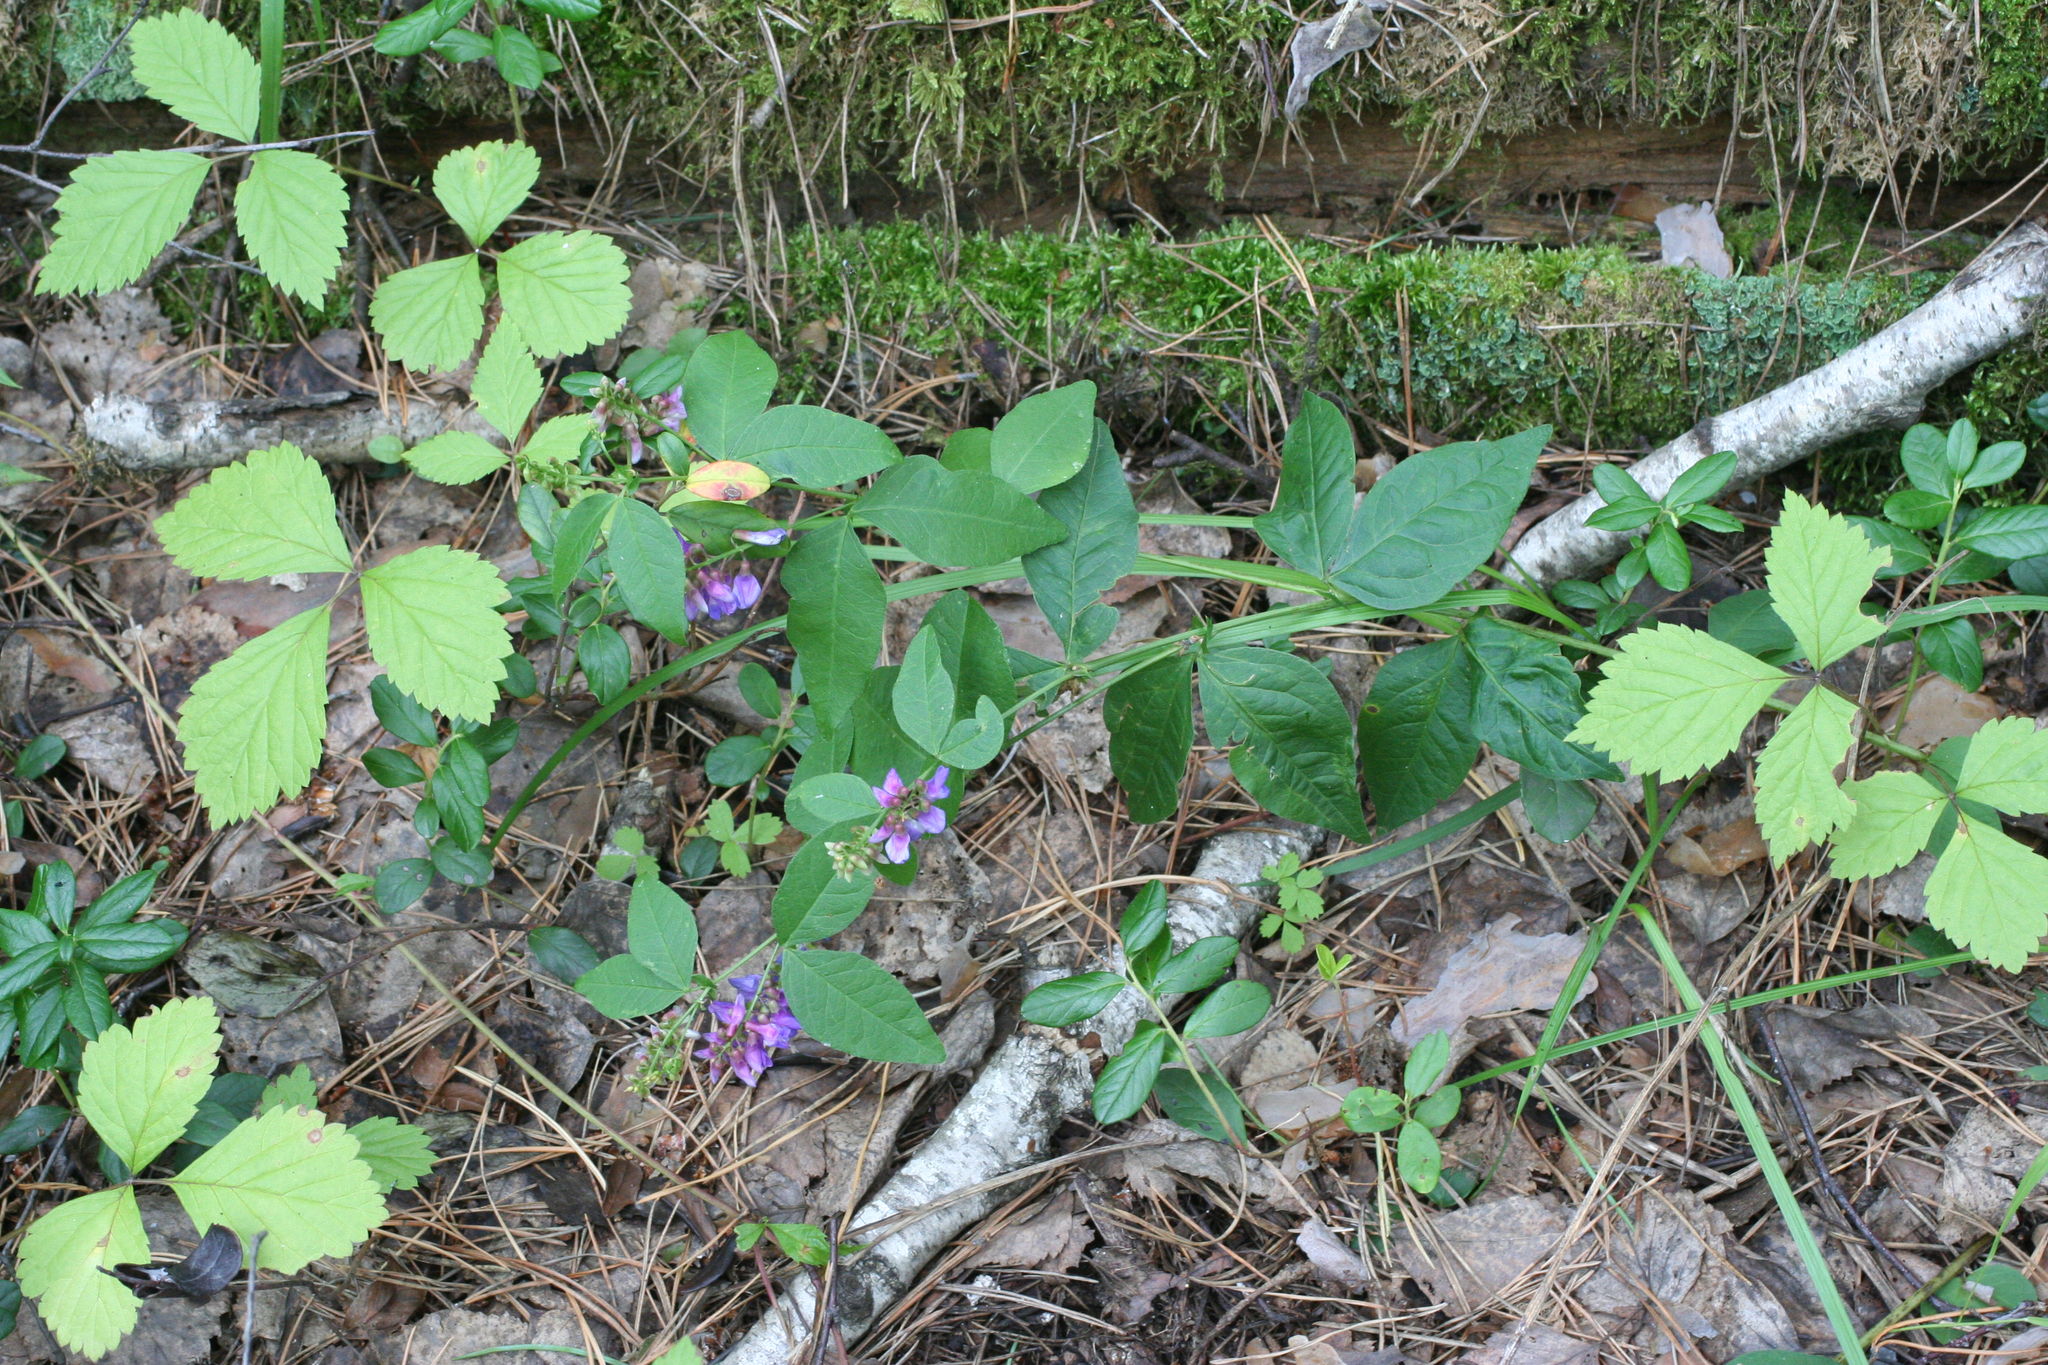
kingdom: Plantae
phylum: Tracheophyta
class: Magnoliopsida
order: Fabales
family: Fabaceae
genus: Vicia
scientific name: Vicia unijuga
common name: Two-leaf vetch
